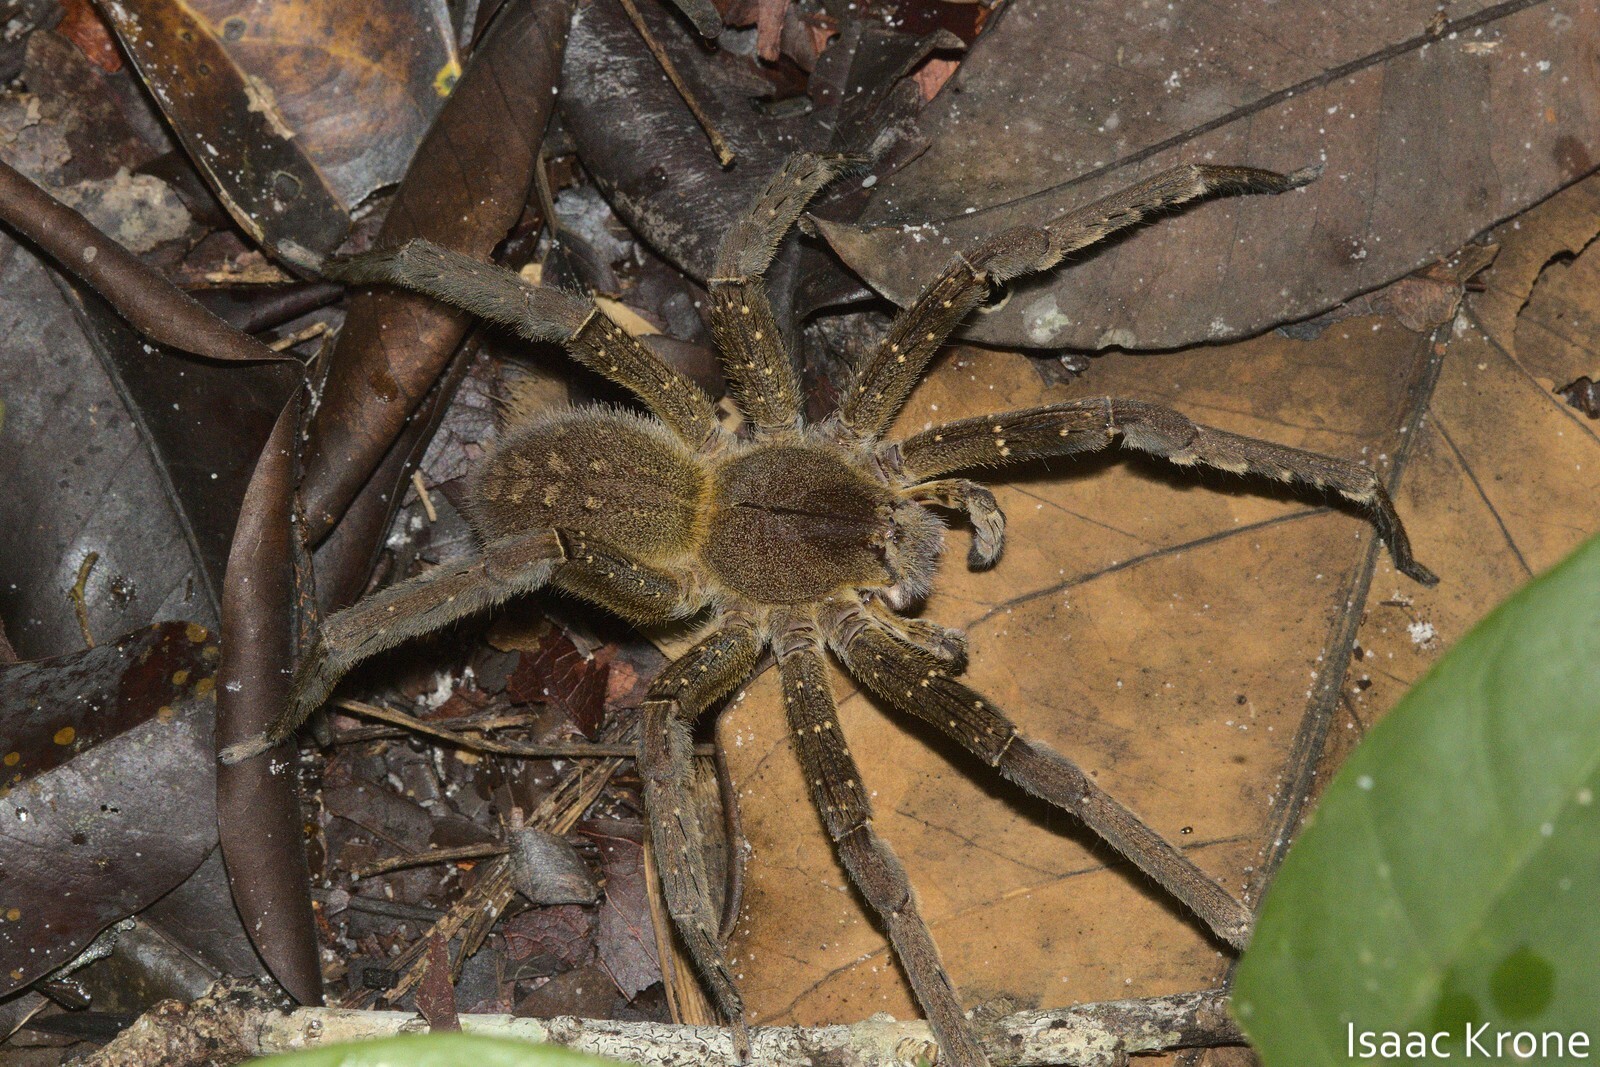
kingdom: Animalia
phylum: Arthropoda
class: Arachnida
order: Araneae
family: Ctenidae
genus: Phoneutria
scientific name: Phoneutria fera
